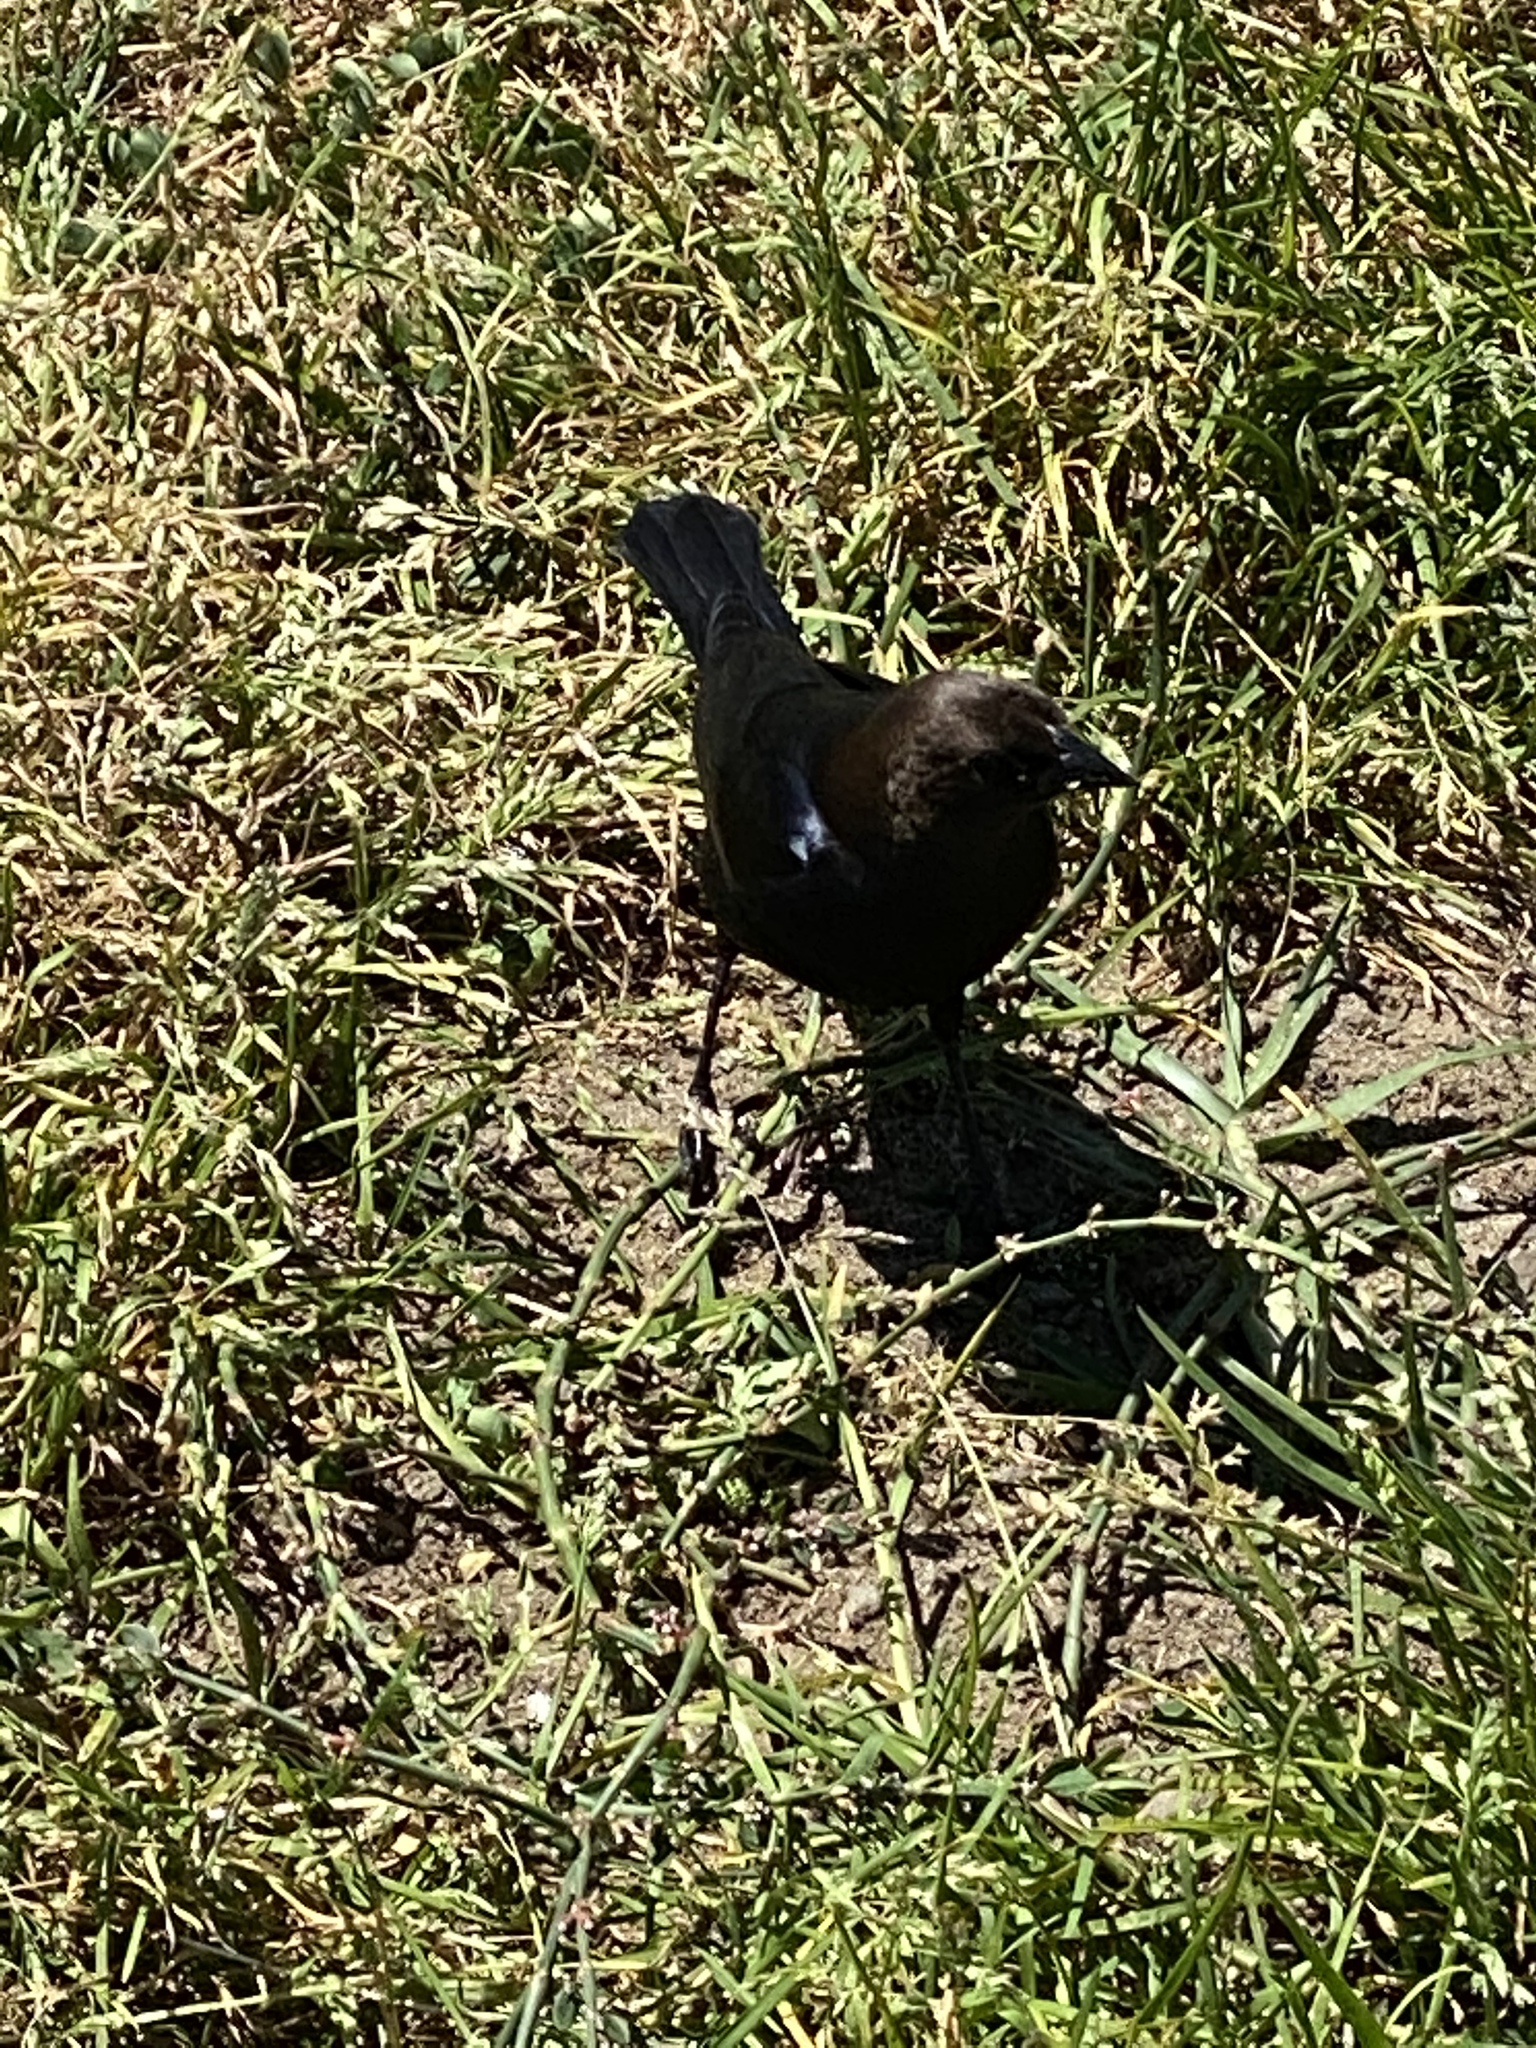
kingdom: Animalia
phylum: Chordata
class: Aves
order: Passeriformes
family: Icteridae
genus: Molothrus
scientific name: Molothrus ater
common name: Brown-headed cowbird
